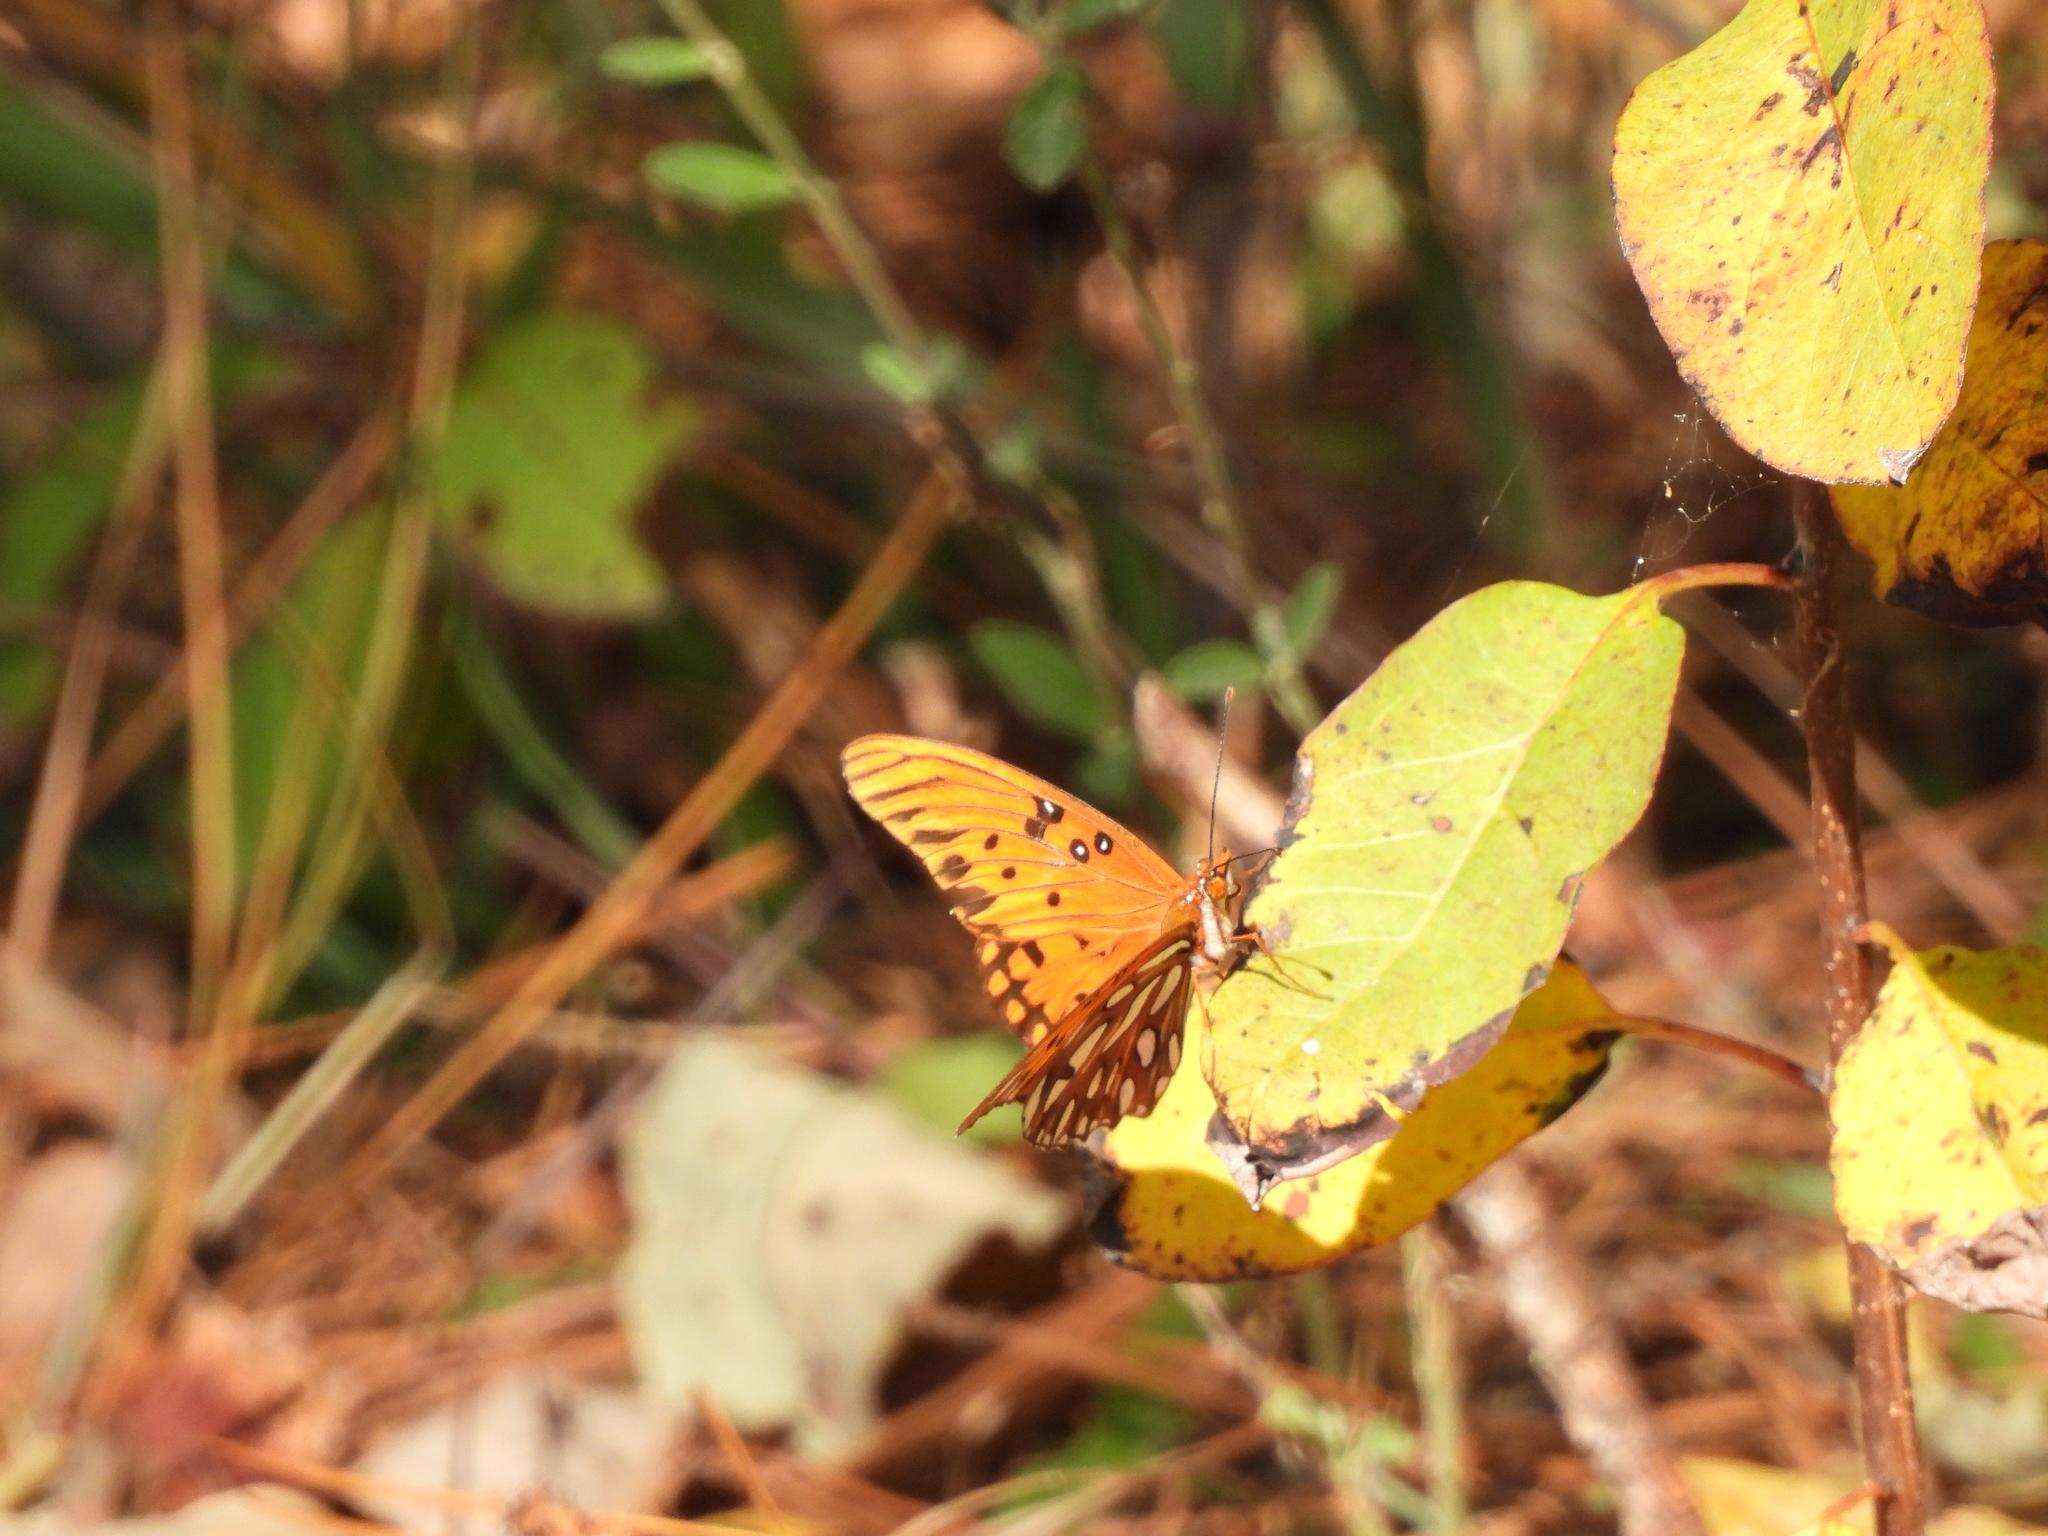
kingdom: Animalia
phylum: Arthropoda
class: Insecta
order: Lepidoptera
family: Nymphalidae
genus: Dione
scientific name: Dione vanillae
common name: Gulf fritillary
